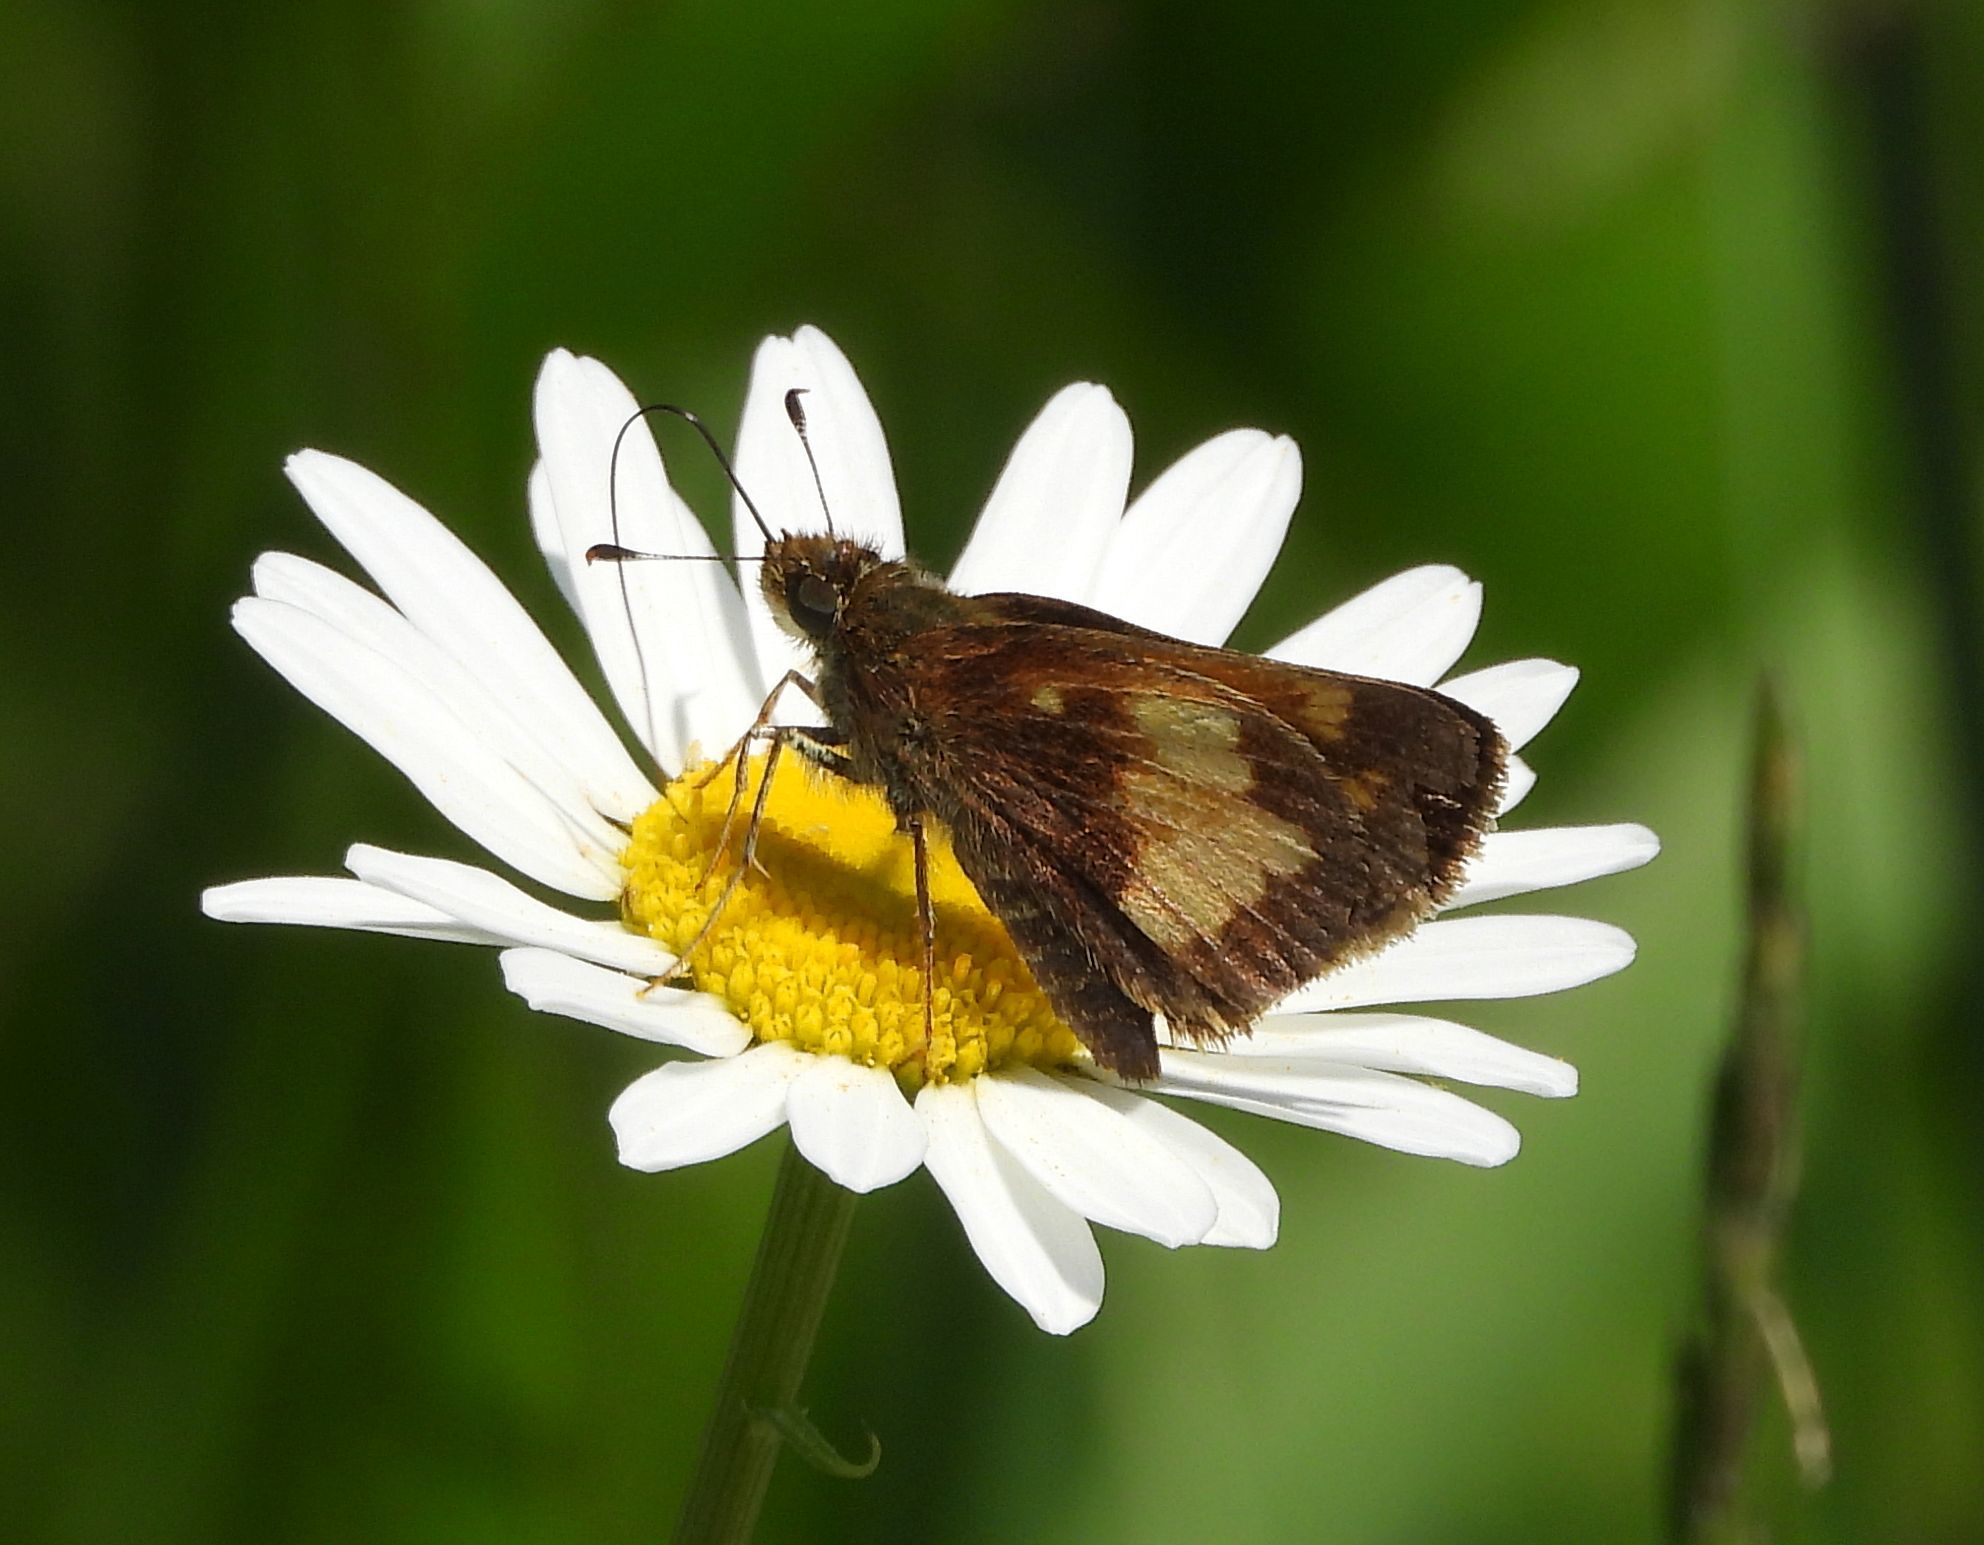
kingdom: Animalia
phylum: Arthropoda
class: Insecta
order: Lepidoptera
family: Hesperiidae
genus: Lon
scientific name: Lon hobomok
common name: Hobomok skipper
